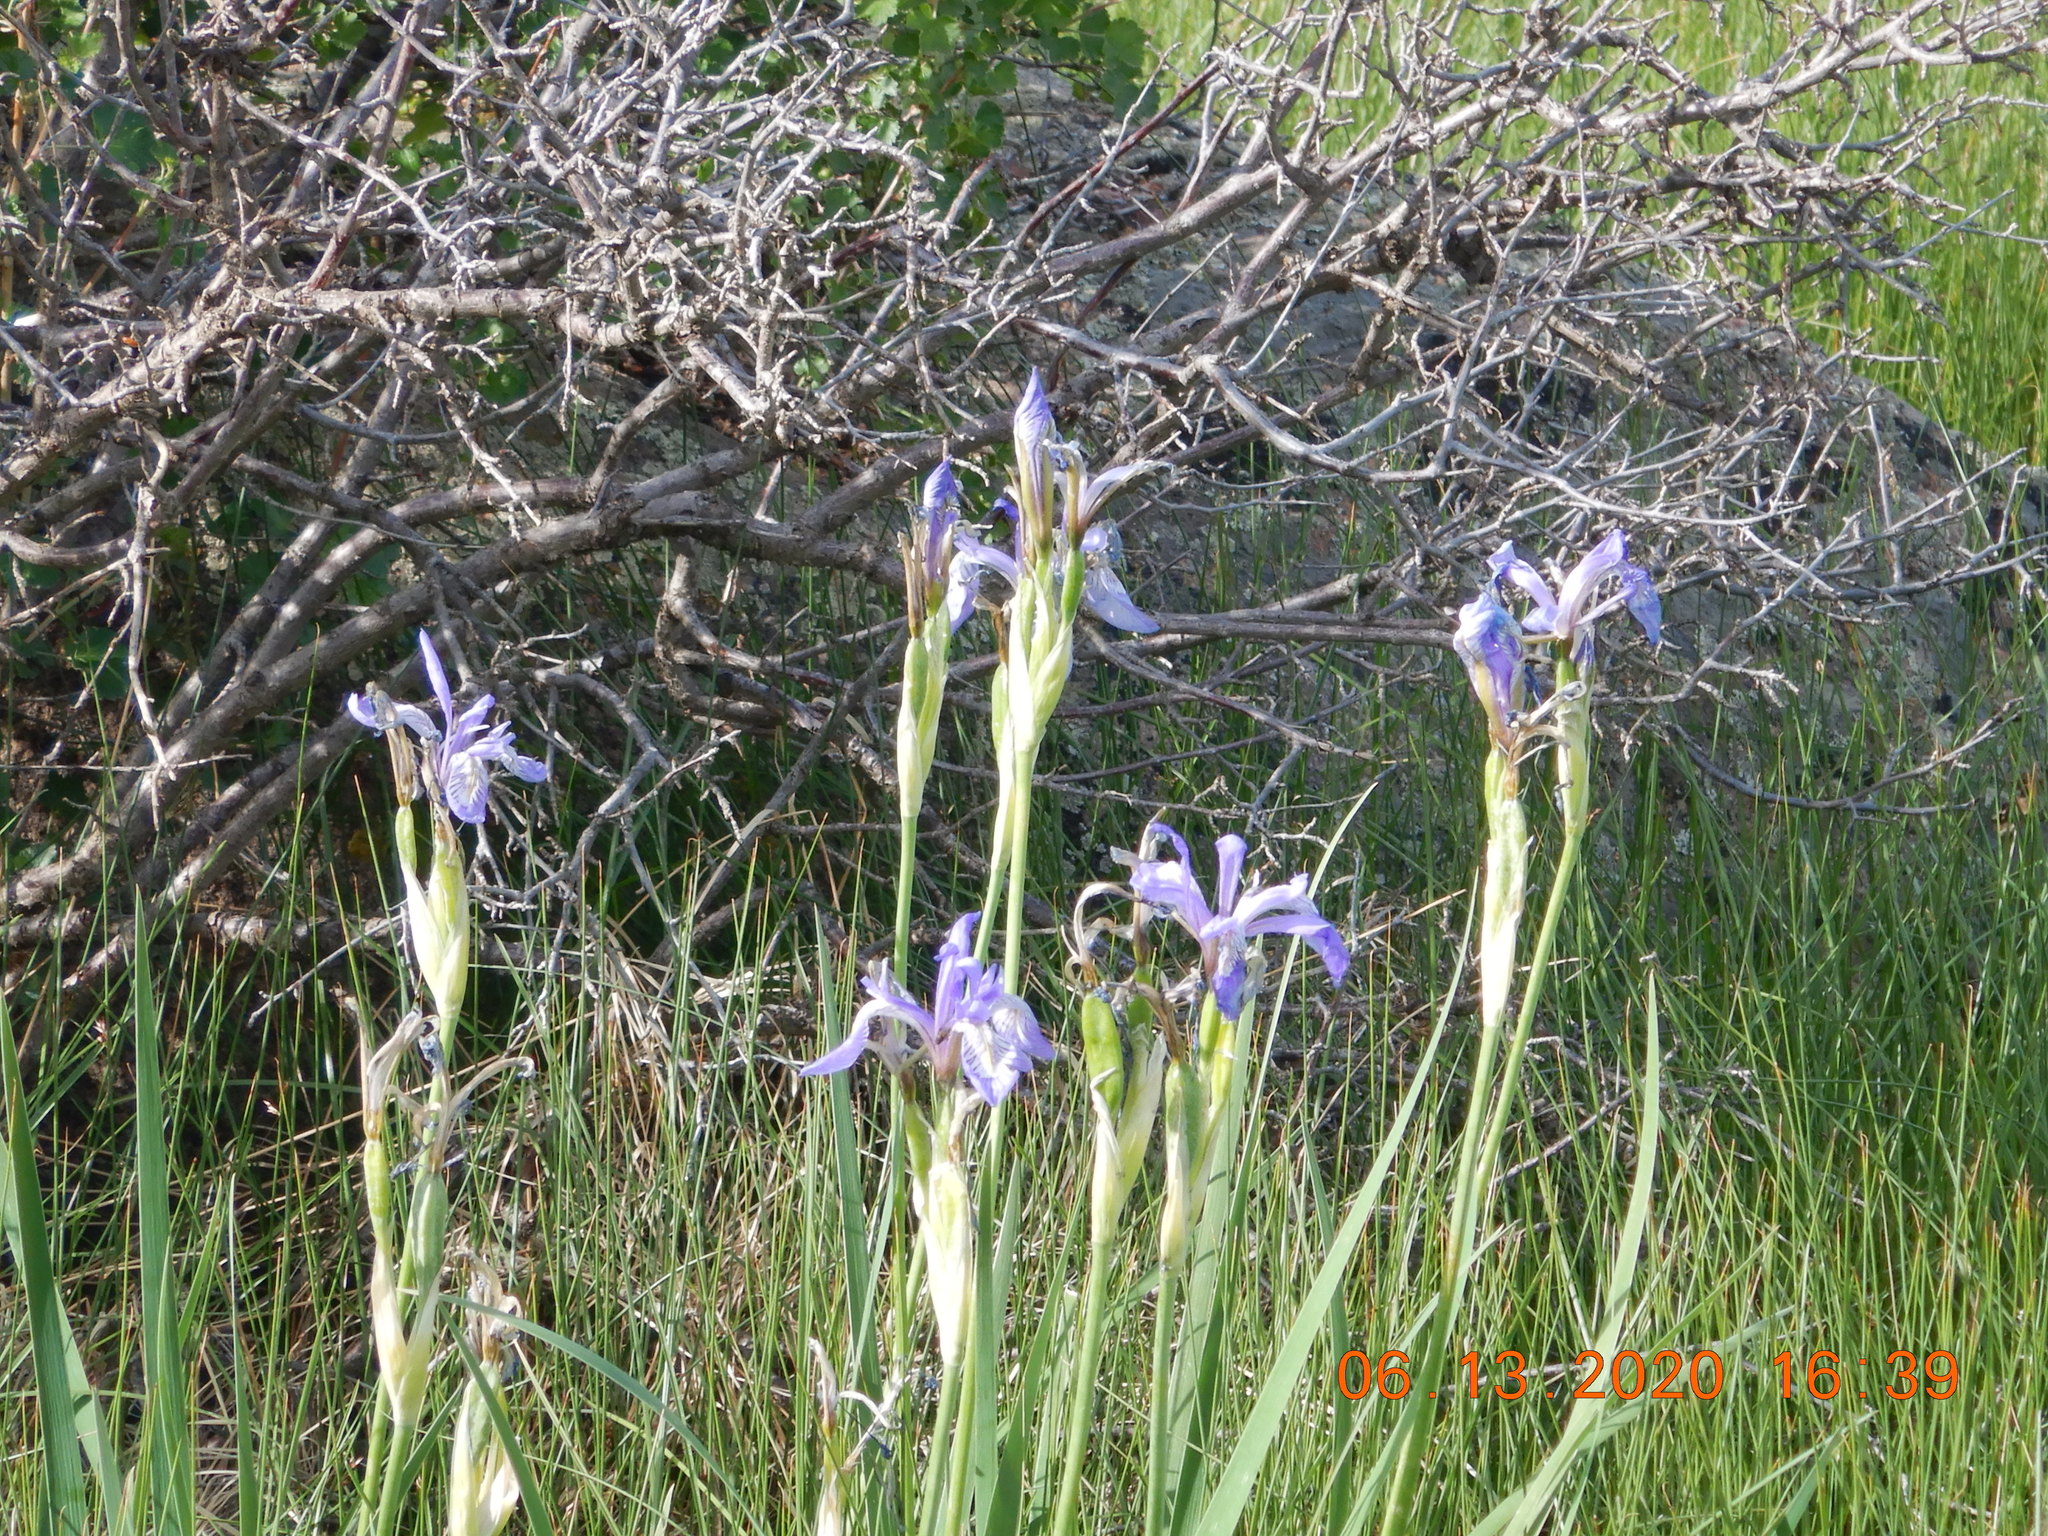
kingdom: Plantae
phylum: Tracheophyta
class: Liliopsida
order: Asparagales
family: Iridaceae
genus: Iris
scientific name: Iris missouriensis
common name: Rocky mountain iris
